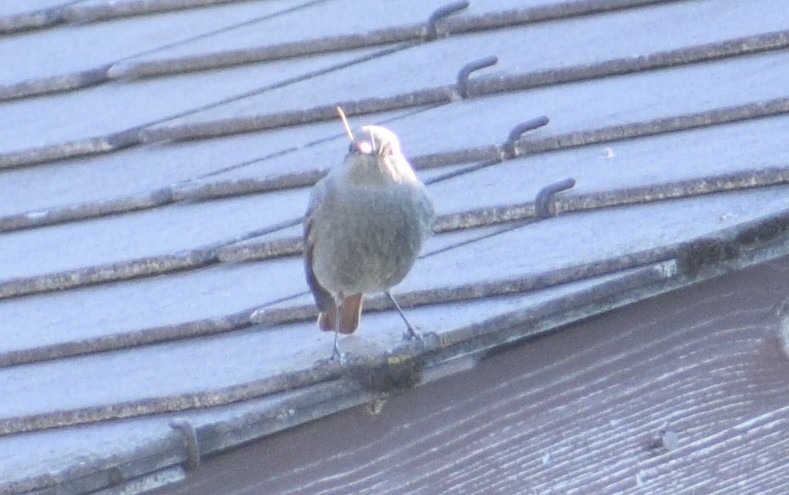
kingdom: Animalia
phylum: Chordata
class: Aves
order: Passeriformes
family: Muscicapidae
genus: Phoenicurus
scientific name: Phoenicurus ochruros
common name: Black redstart
